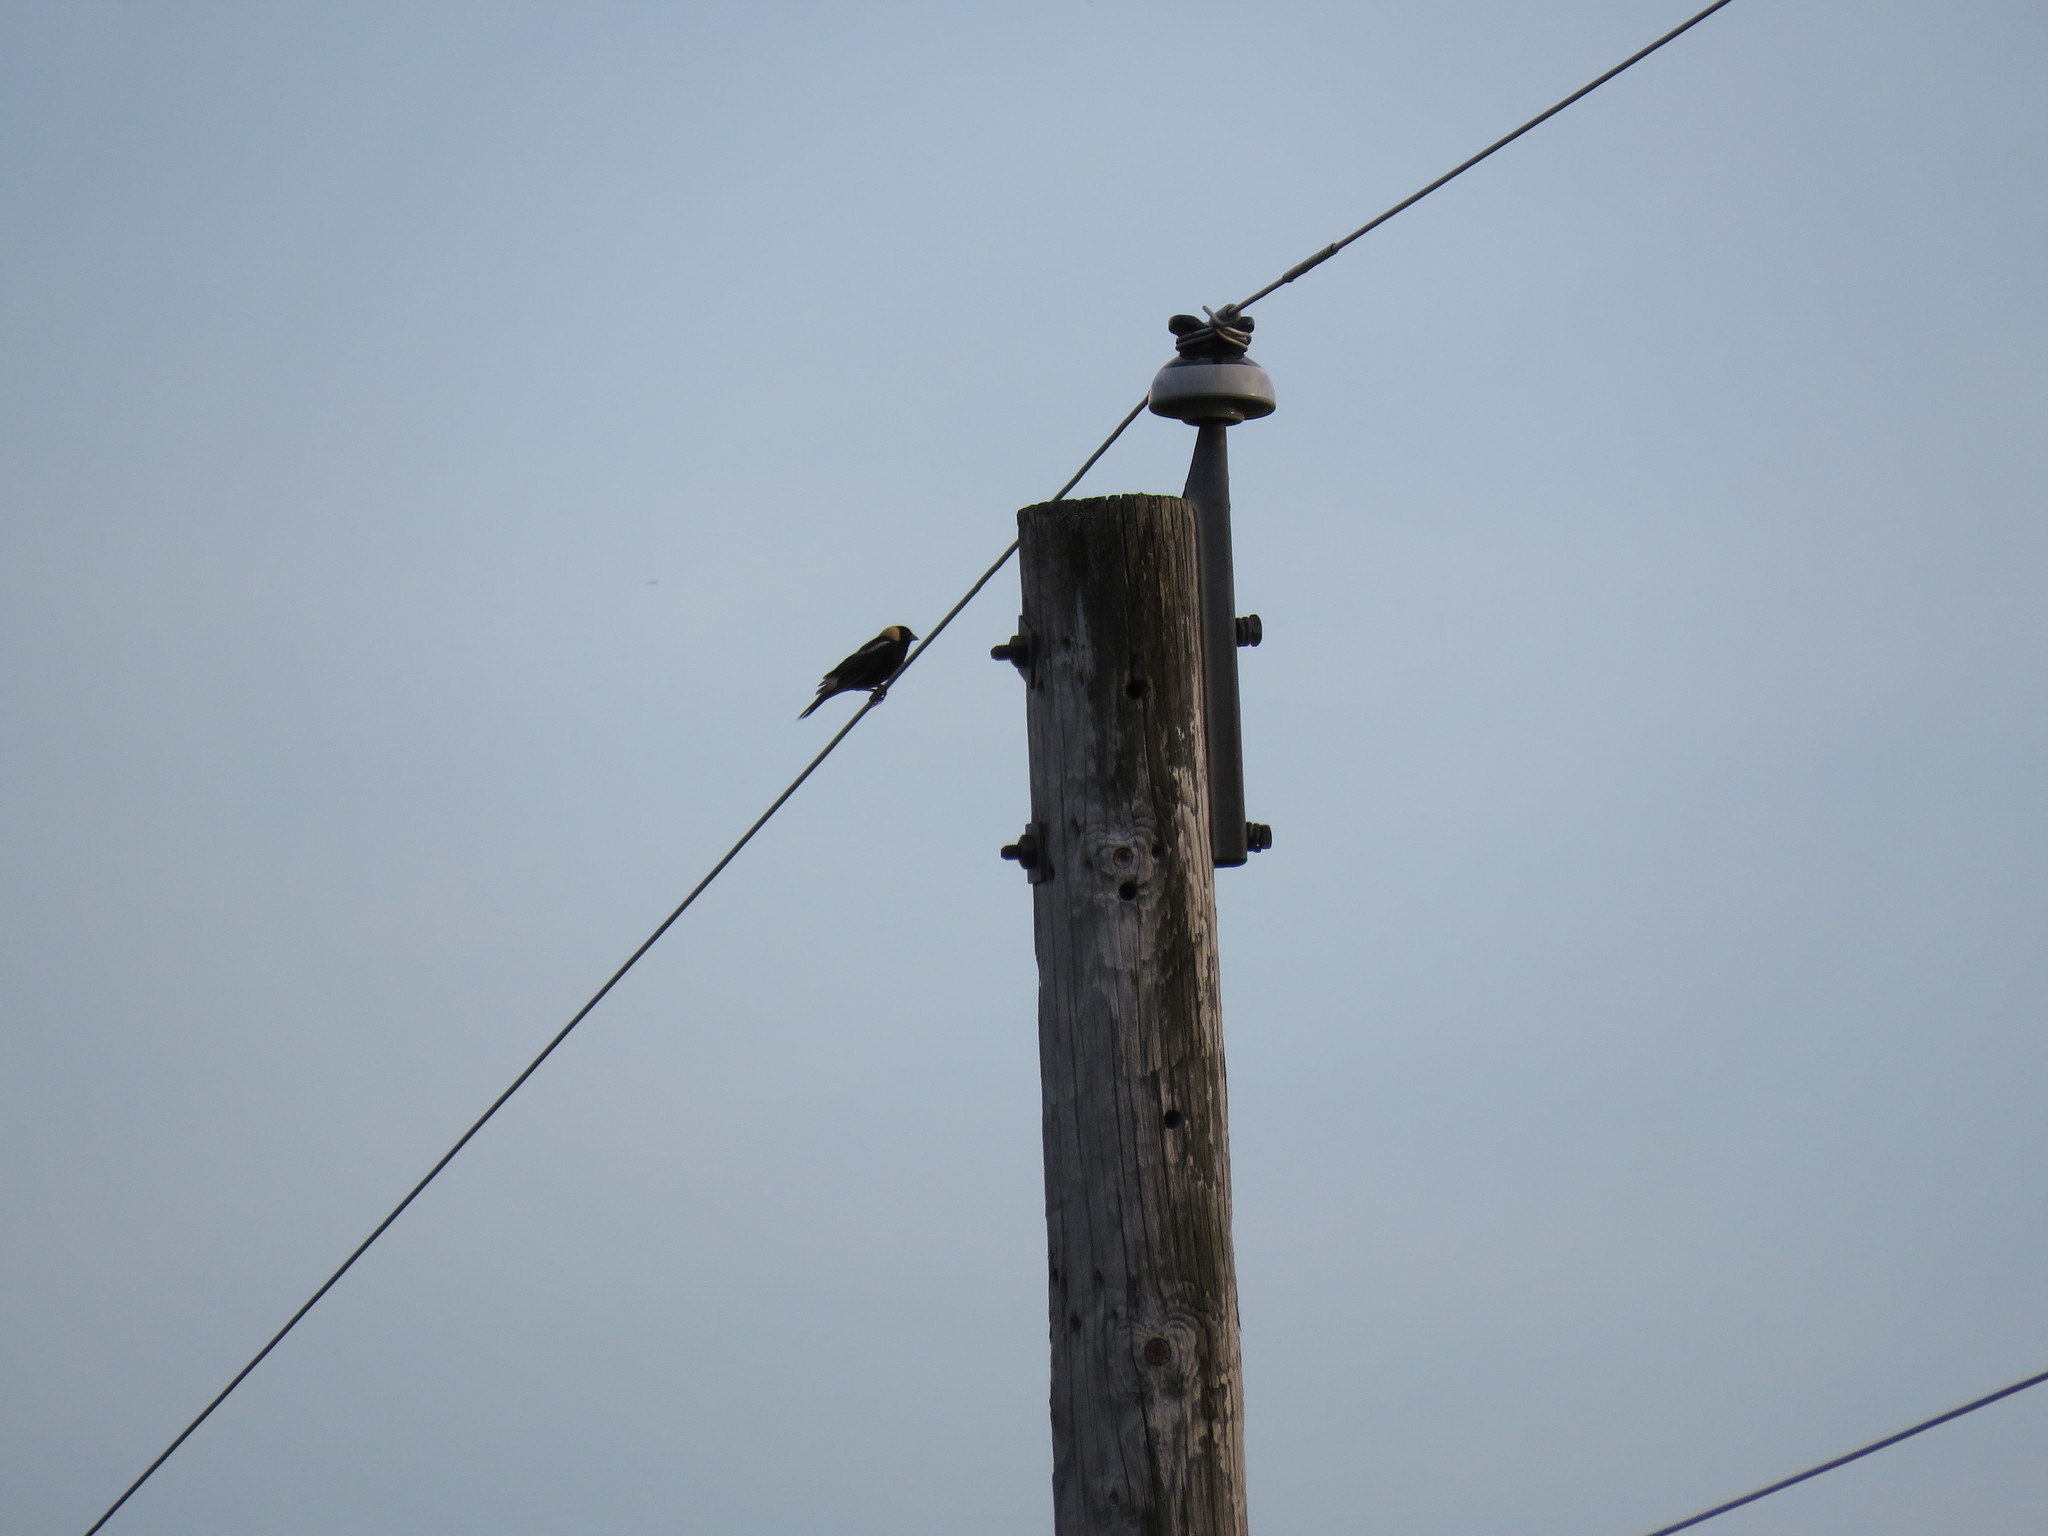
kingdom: Animalia
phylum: Chordata
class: Aves
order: Passeriformes
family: Icteridae
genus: Dolichonyx
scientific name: Dolichonyx oryzivorus
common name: Bobolink
